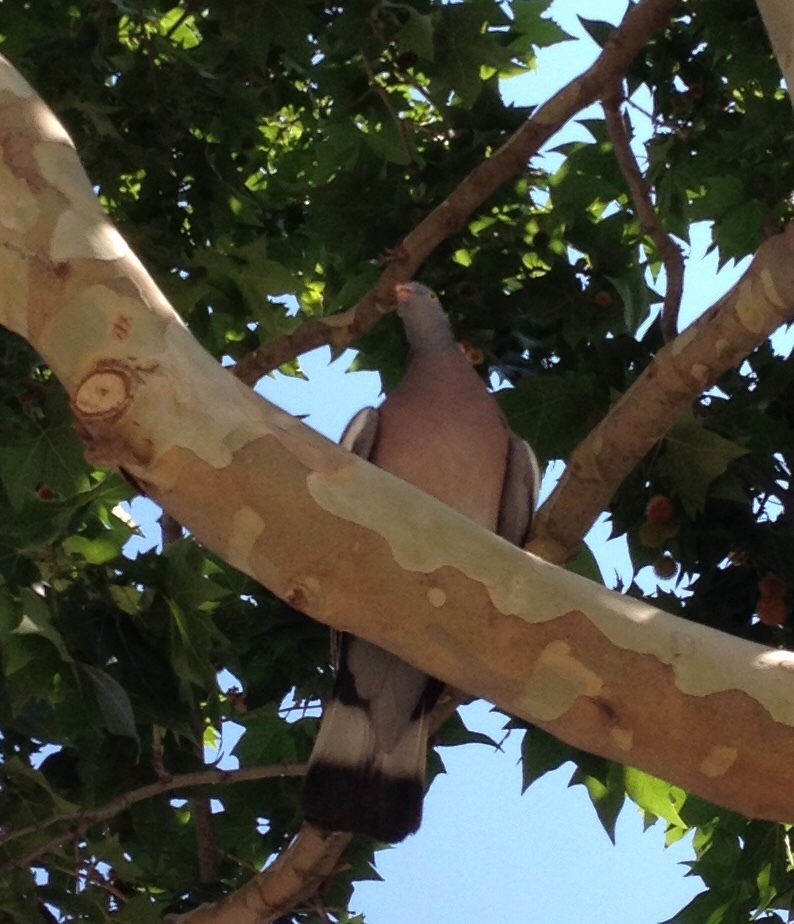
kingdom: Animalia
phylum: Chordata
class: Aves
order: Columbiformes
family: Columbidae
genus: Columba
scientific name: Columba palumbus
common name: Common wood pigeon
